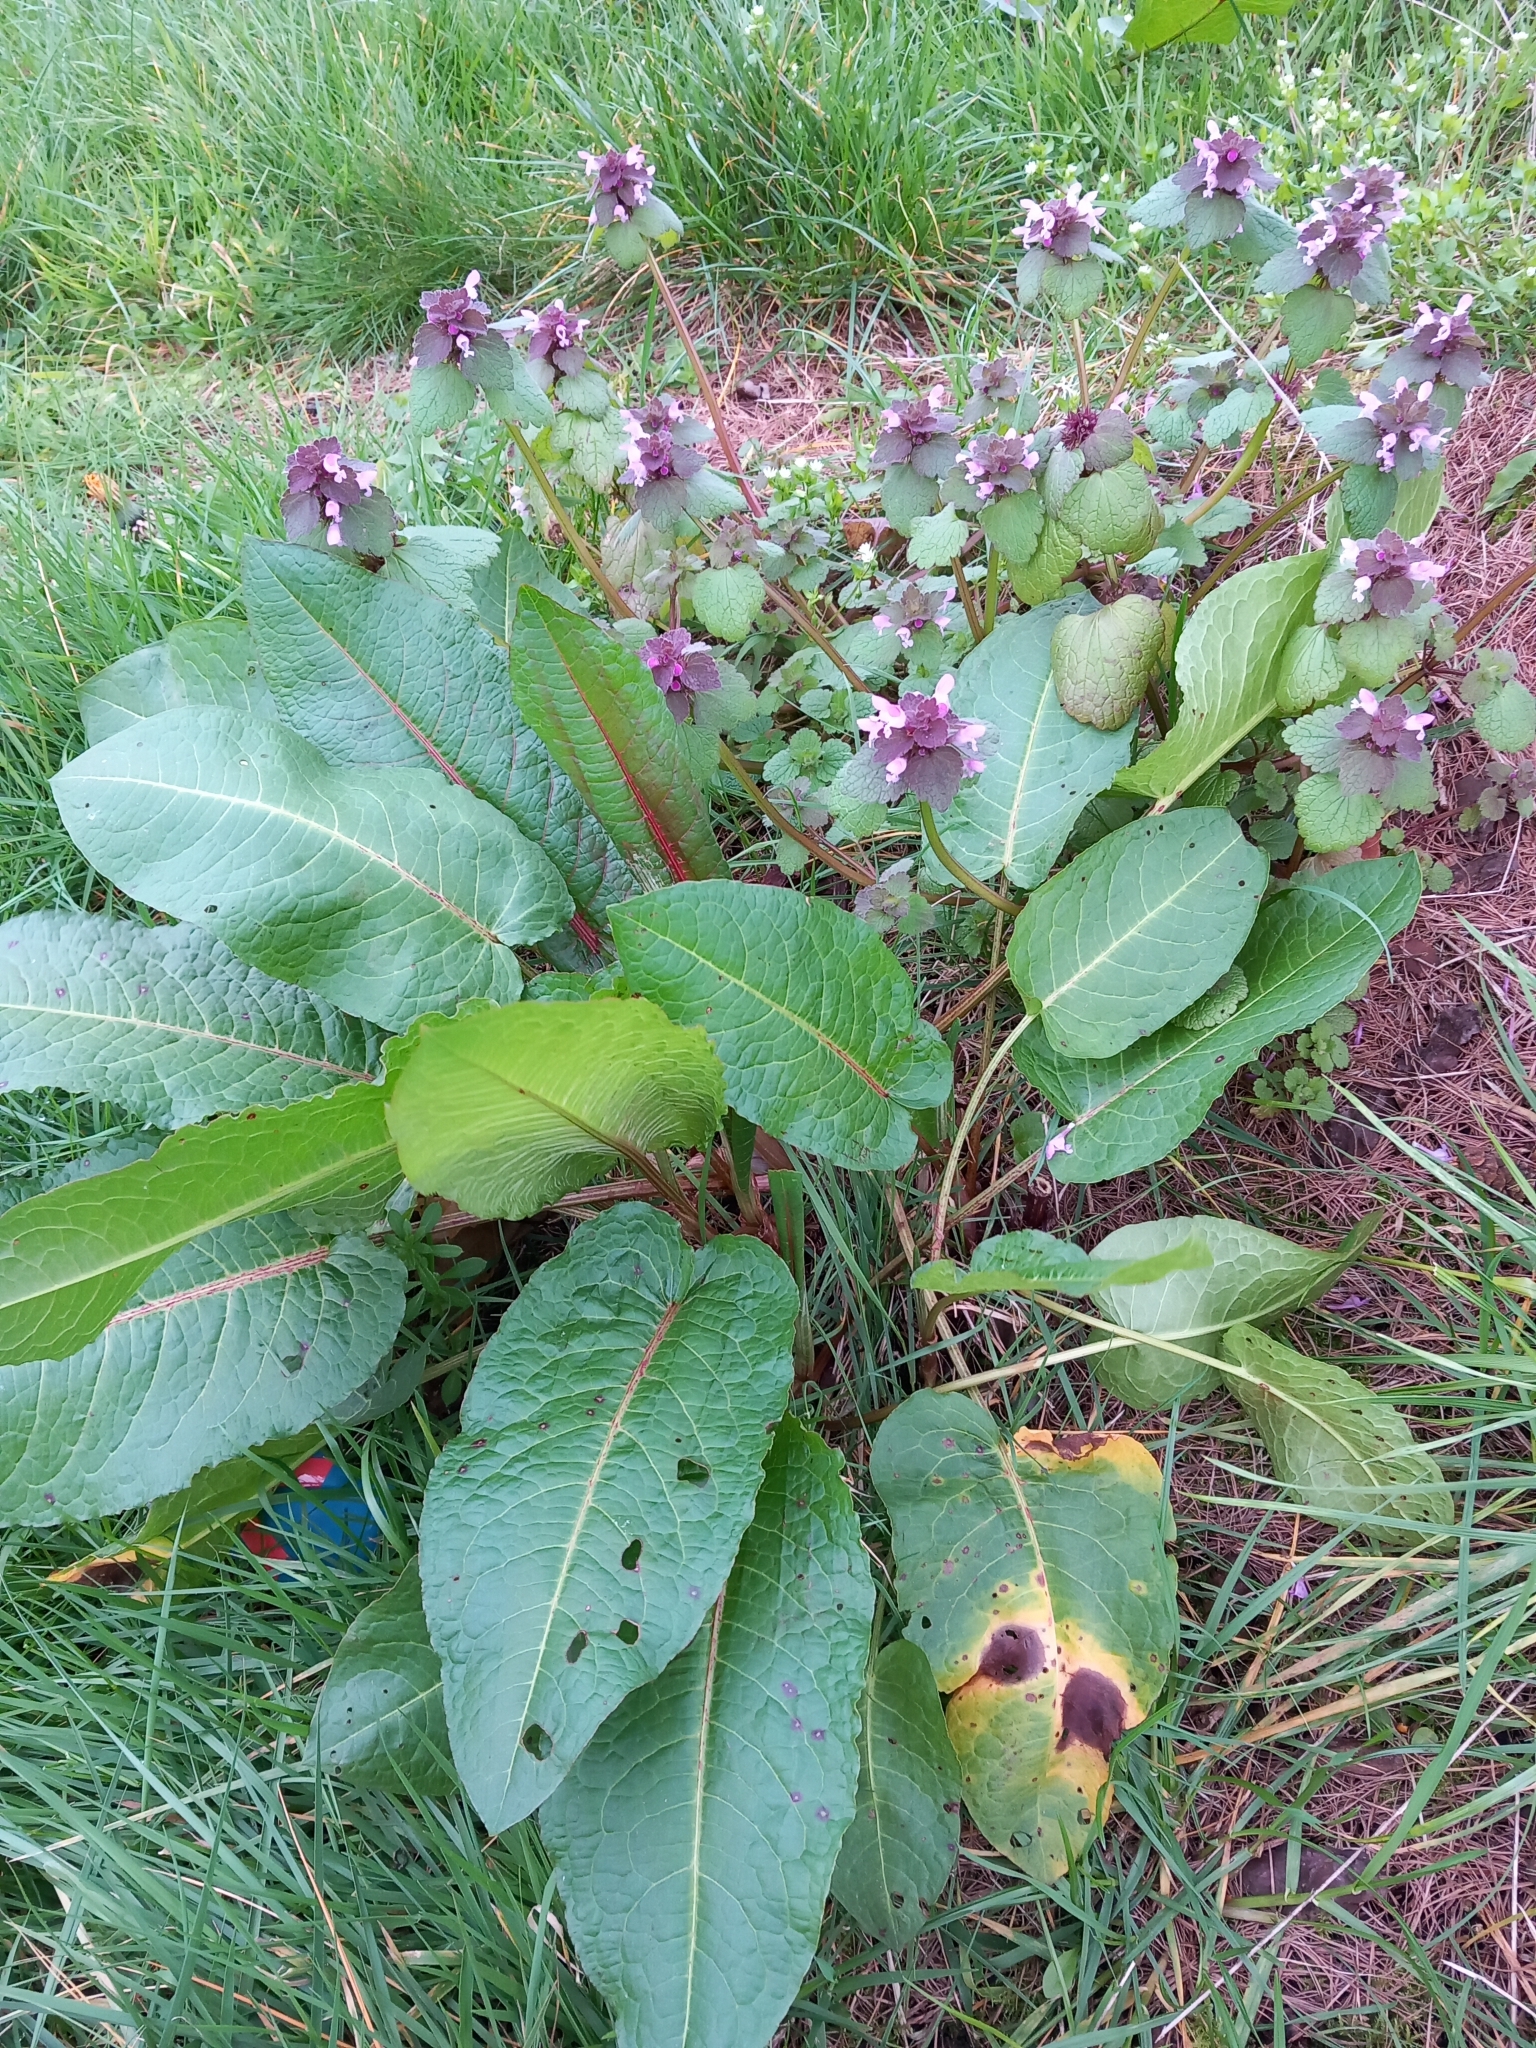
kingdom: Plantae
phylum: Tracheophyta
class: Magnoliopsida
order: Caryophyllales
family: Polygonaceae
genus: Rumex
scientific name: Rumex obtusifolius
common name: Bitter dock
